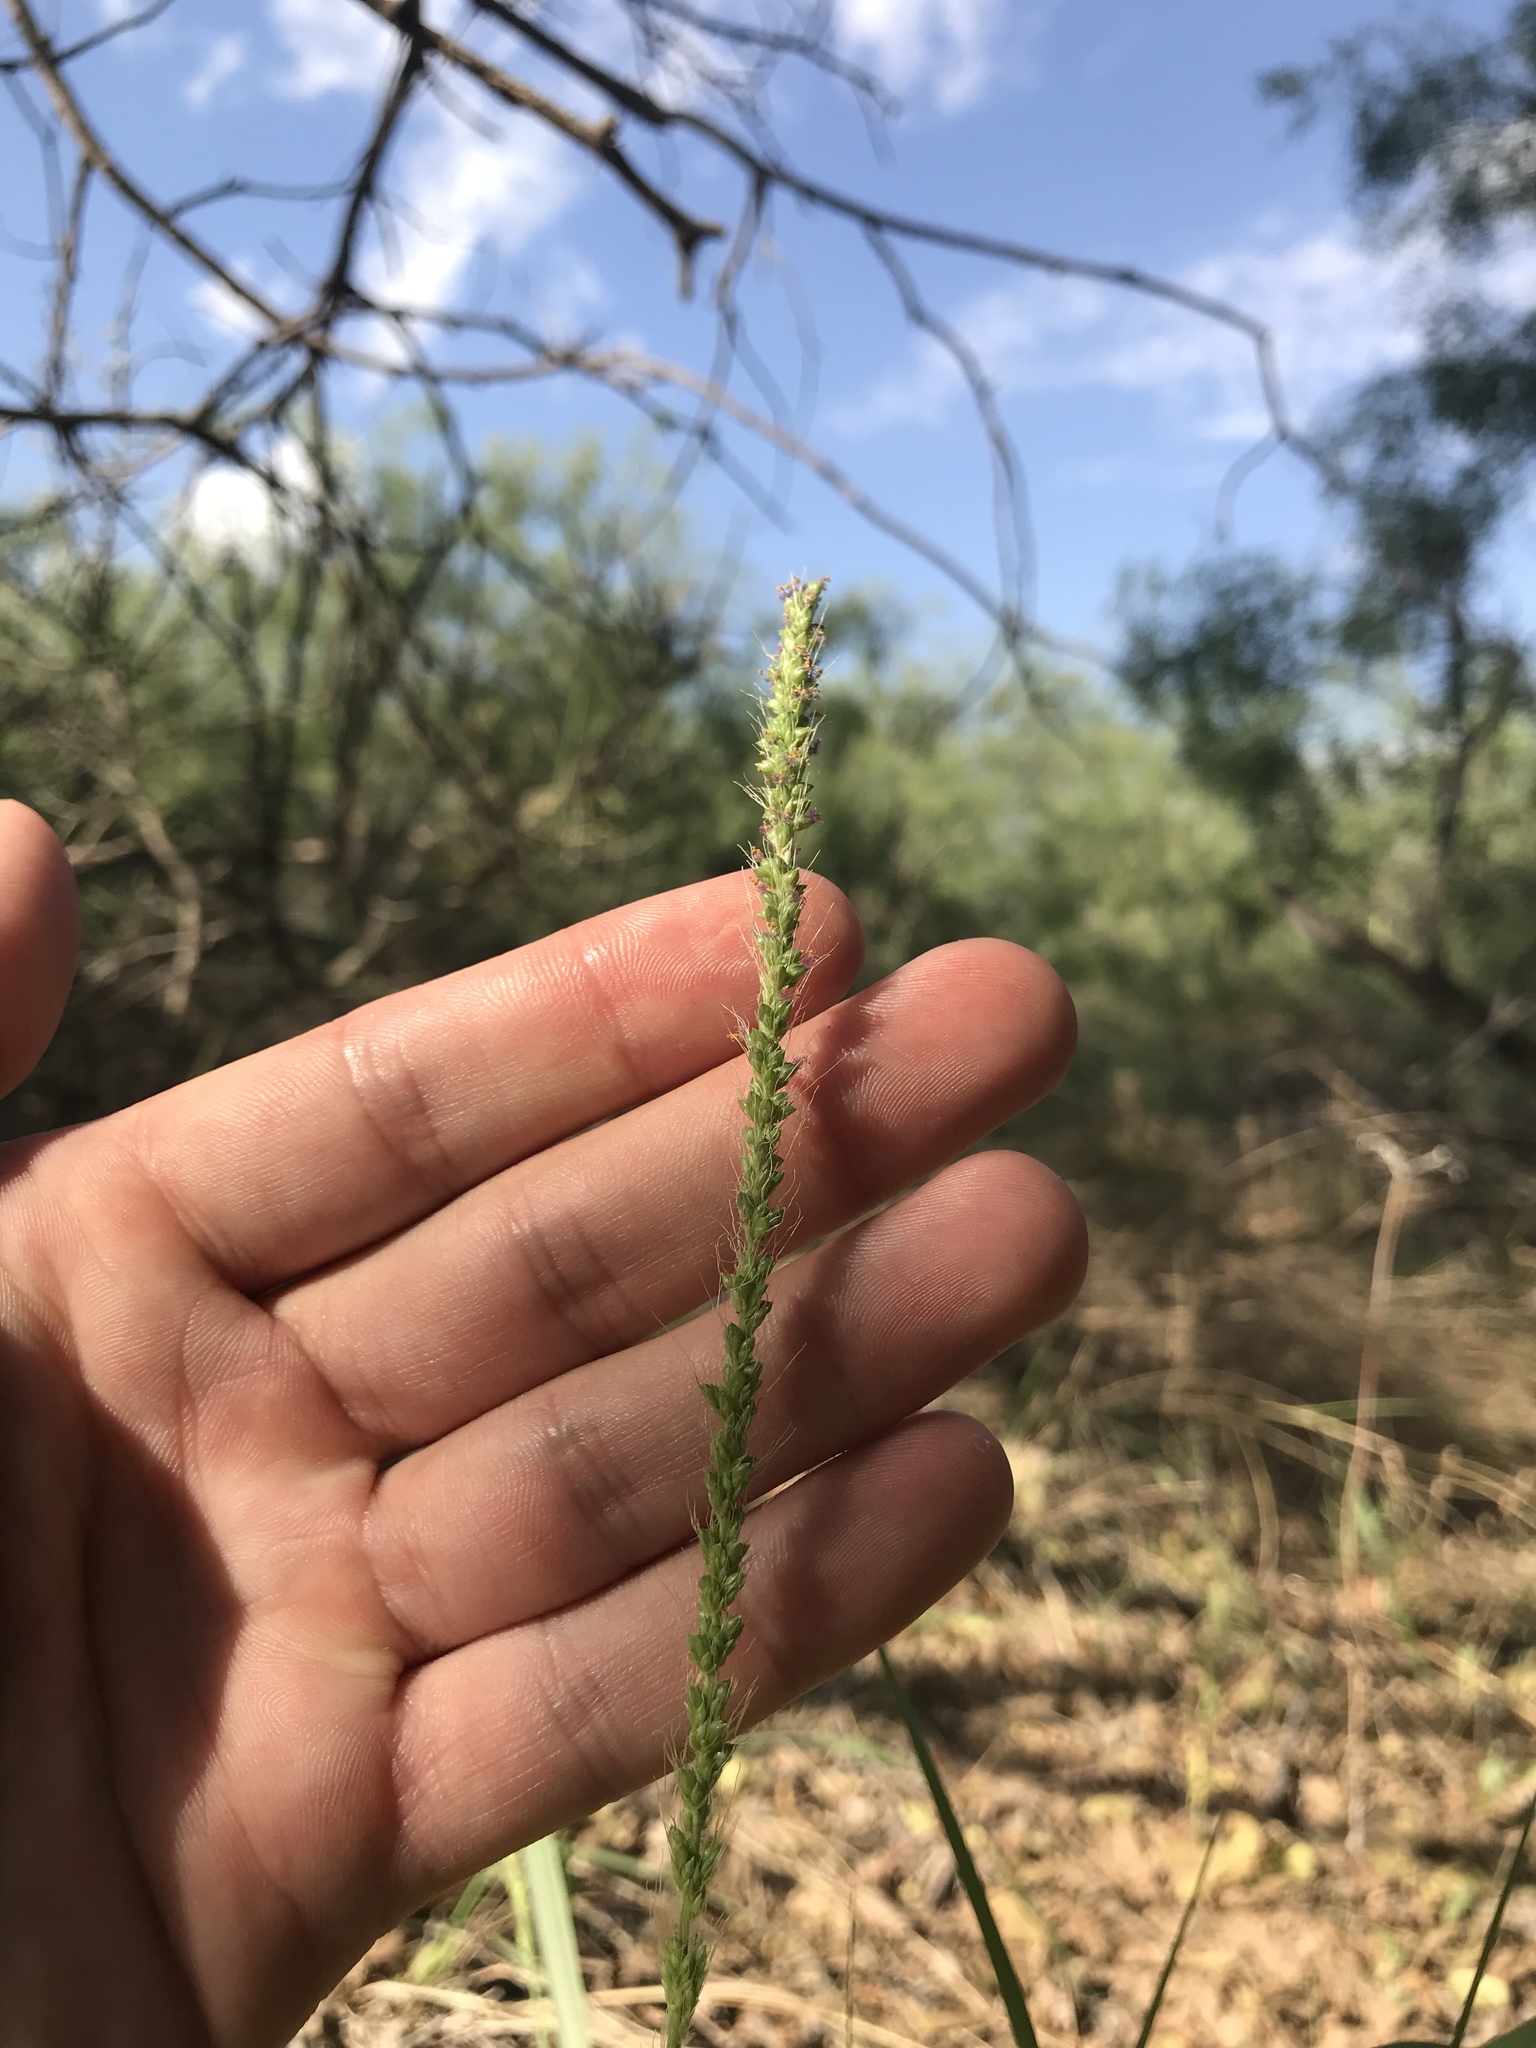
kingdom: Plantae
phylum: Tracheophyta
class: Liliopsida
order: Poales
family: Poaceae
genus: Setaria
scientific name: Setaria leucopila
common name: Plains bristle grass
